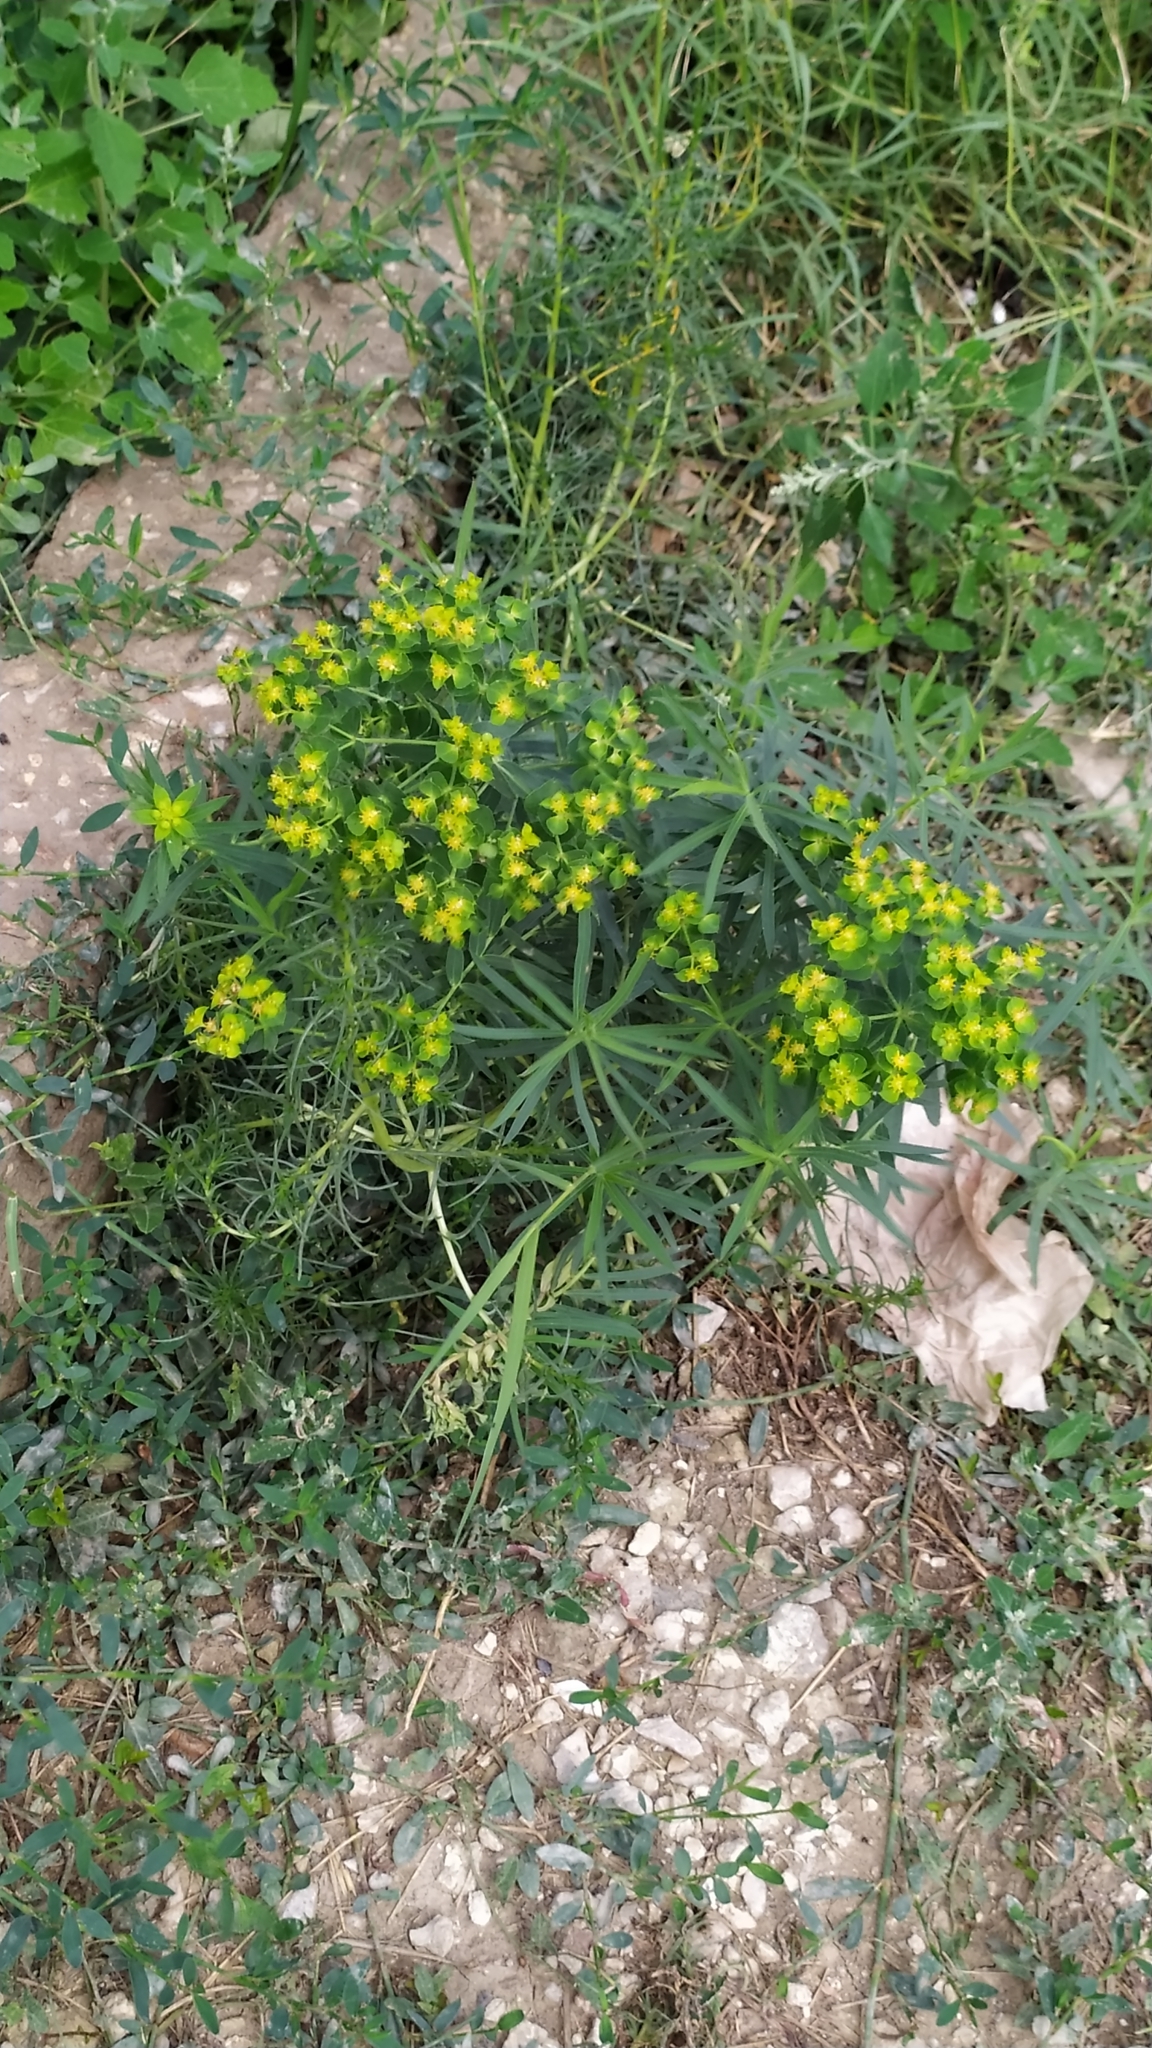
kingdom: Plantae
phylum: Tracheophyta
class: Magnoliopsida
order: Malpighiales
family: Euphorbiaceae
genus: Euphorbia
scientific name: Euphorbia virgata
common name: Leafy spurge
